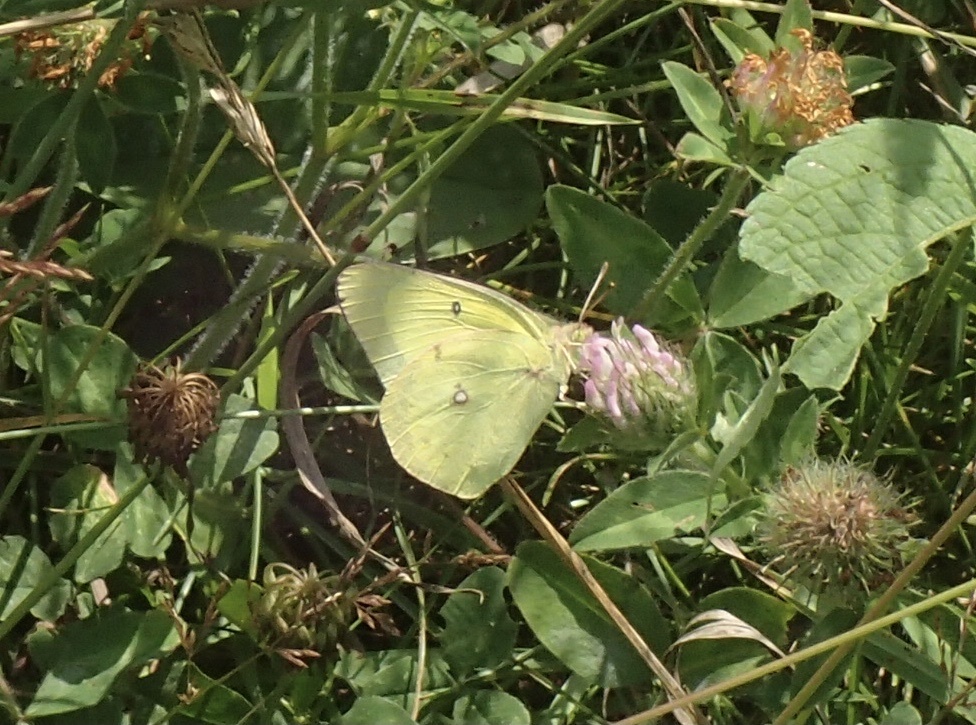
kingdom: Animalia
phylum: Arthropoda
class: Insecta
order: Lepidoptera
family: Pieridae
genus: Colias
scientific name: Colias philodice
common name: Clouded sulphur
